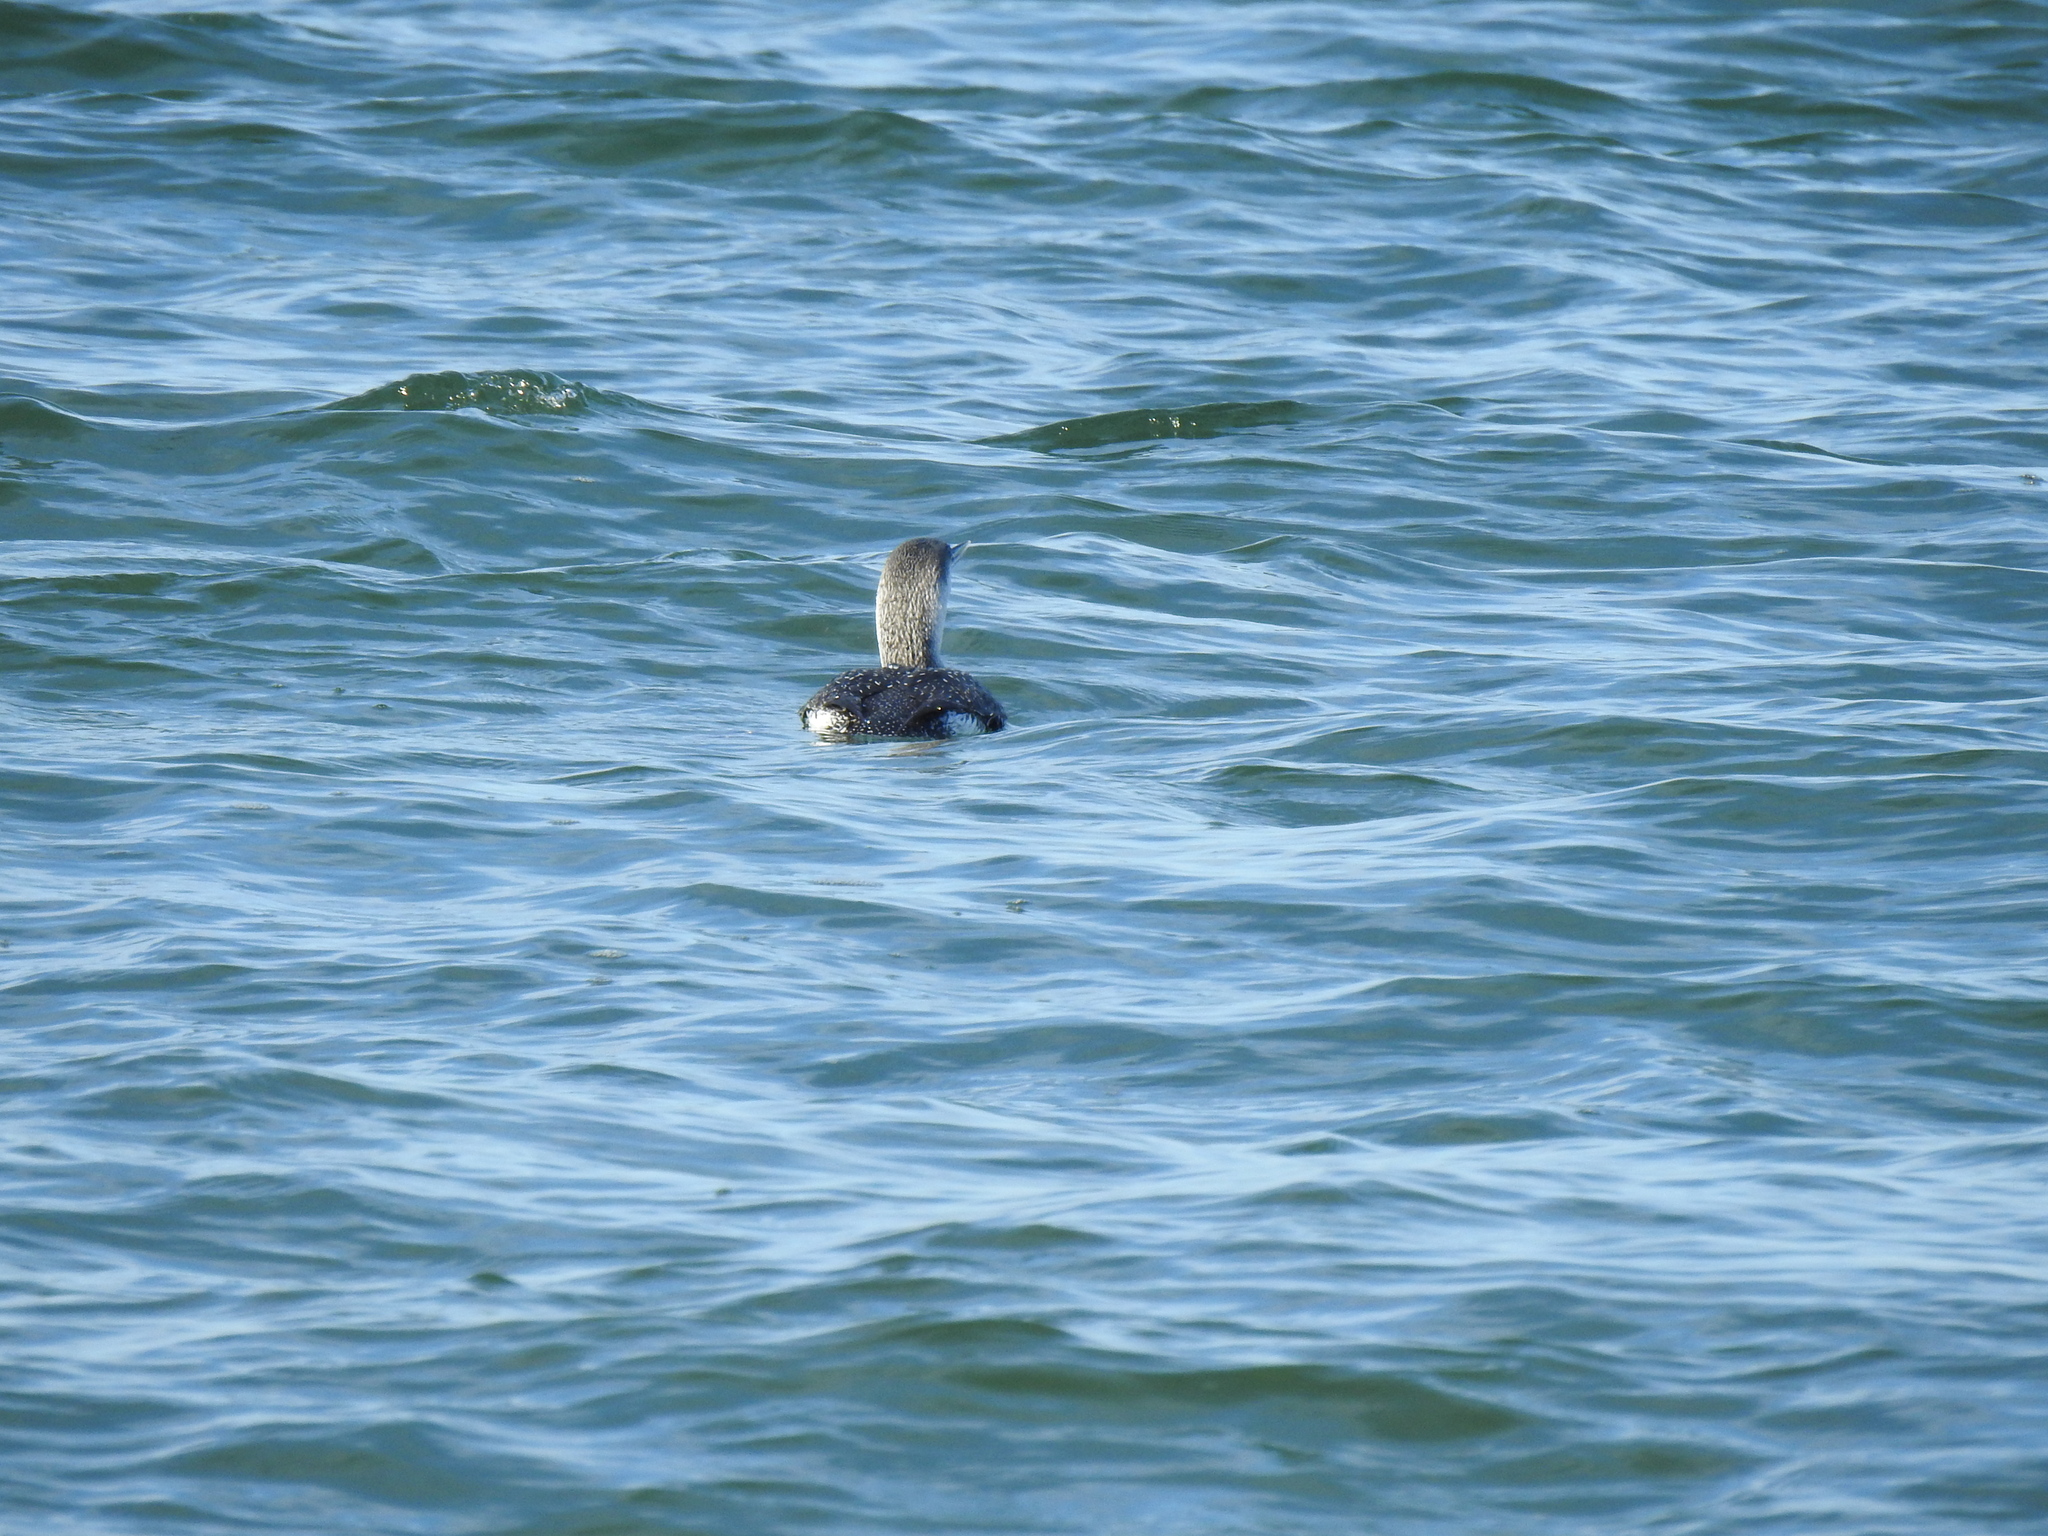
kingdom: Animalia
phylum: Chordata
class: Aves
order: Gaviiformes
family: Gaviidae
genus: Gavia
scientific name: Gavia stellata
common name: Red-throated loon
